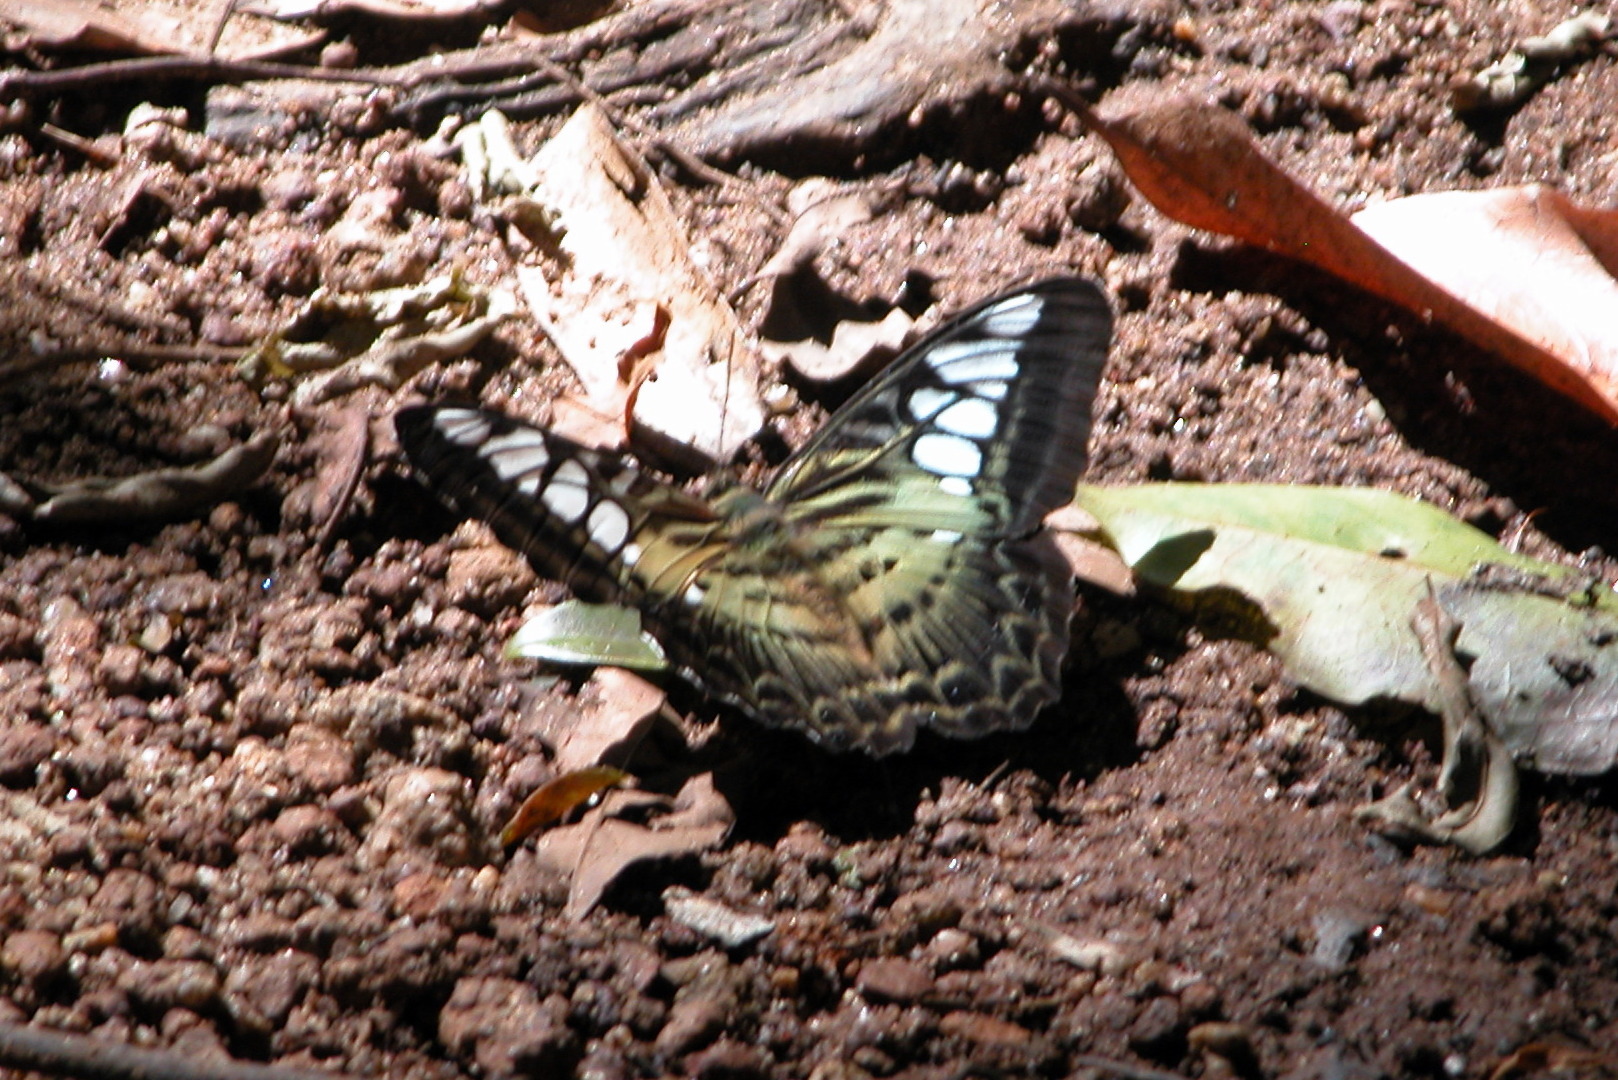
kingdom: Animalia
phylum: Arthropoda
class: Insecta
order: Lepidoptera
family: Nymphalidae
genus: Kallima
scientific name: Kallima sylvia
